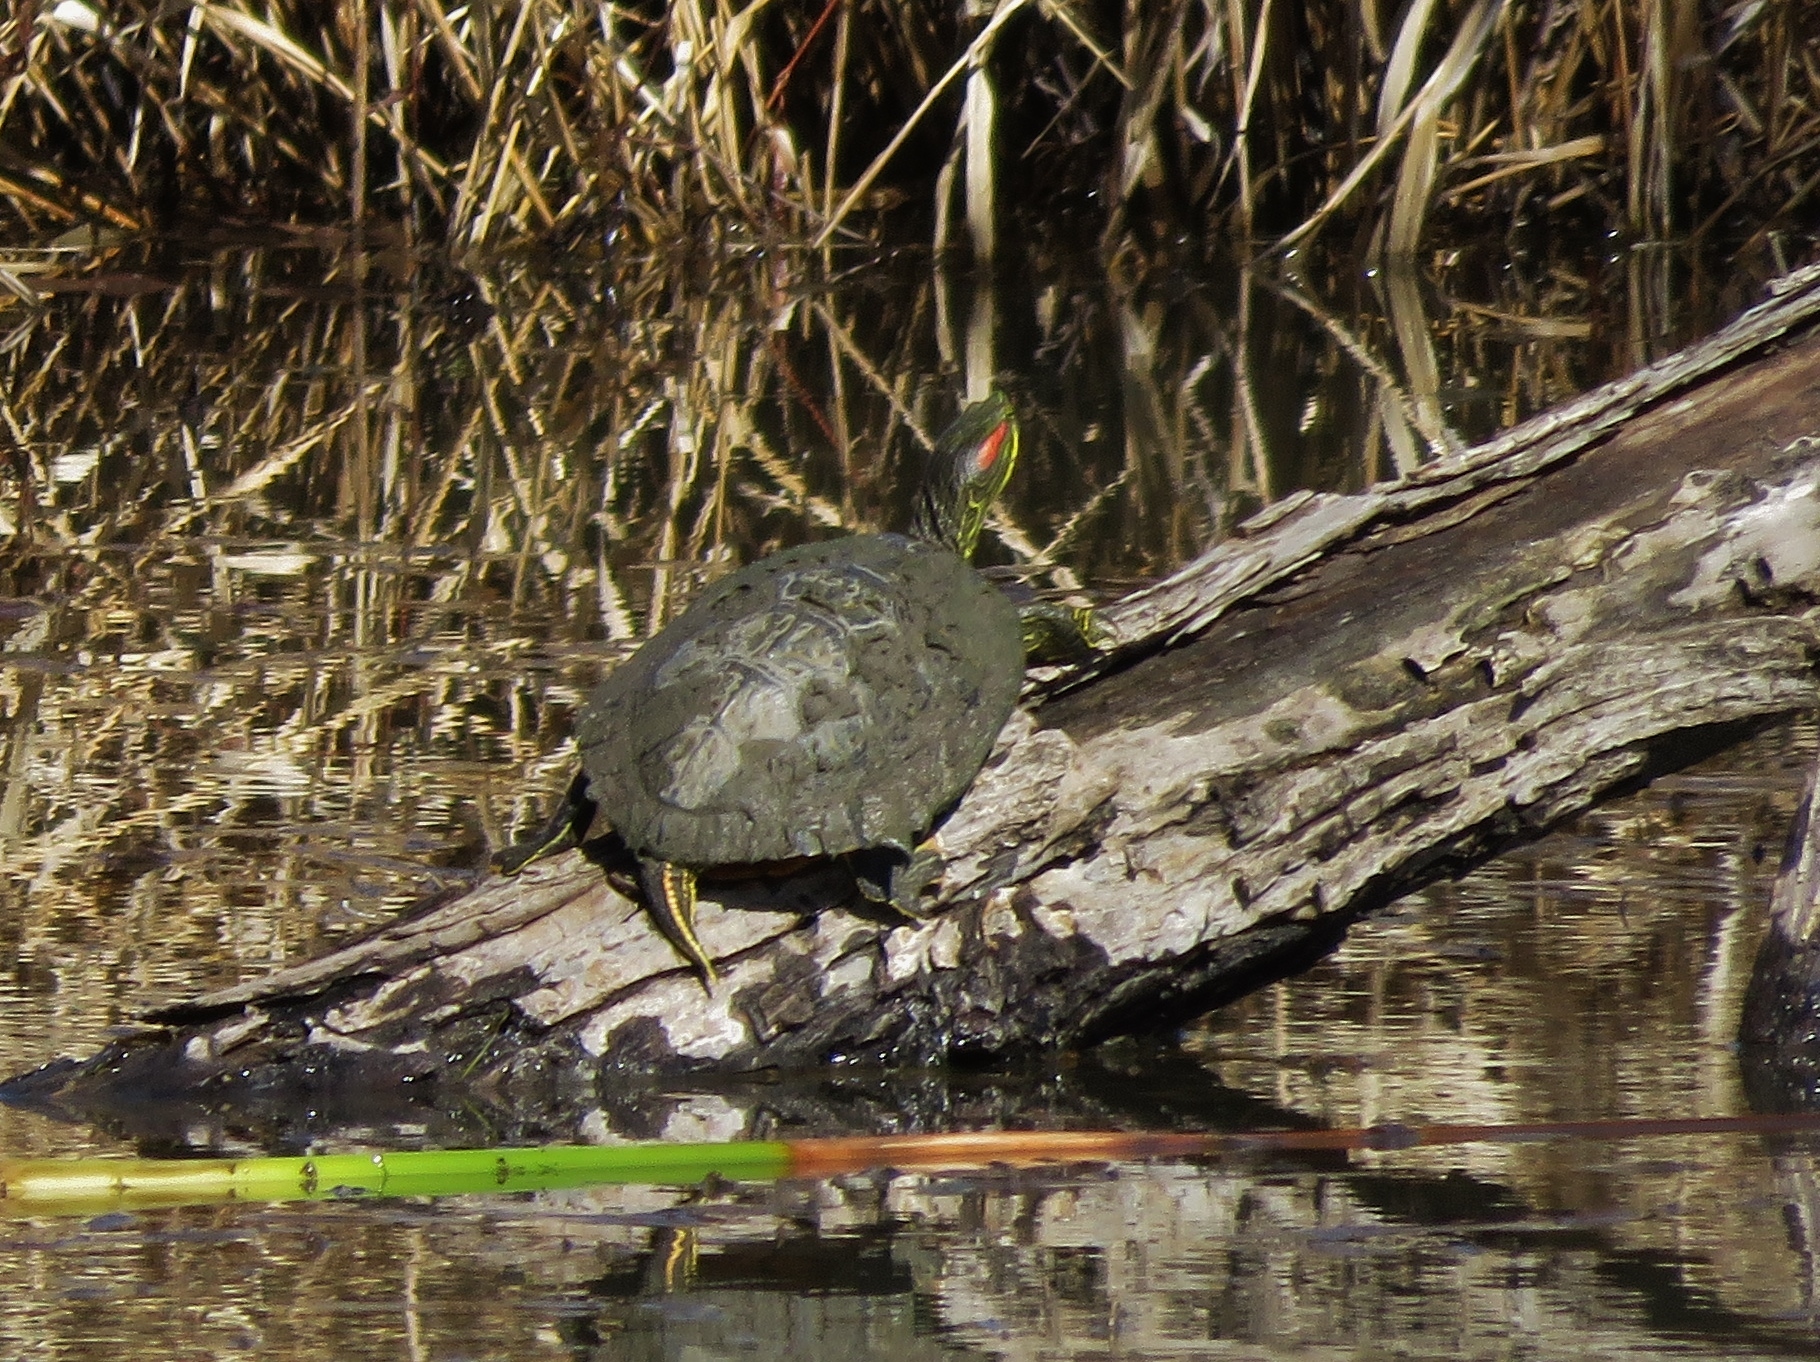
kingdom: Animalia
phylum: Chordata
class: Testudines
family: Emydidae
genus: Trachemys
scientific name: Trachemys scripta
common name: Slider
